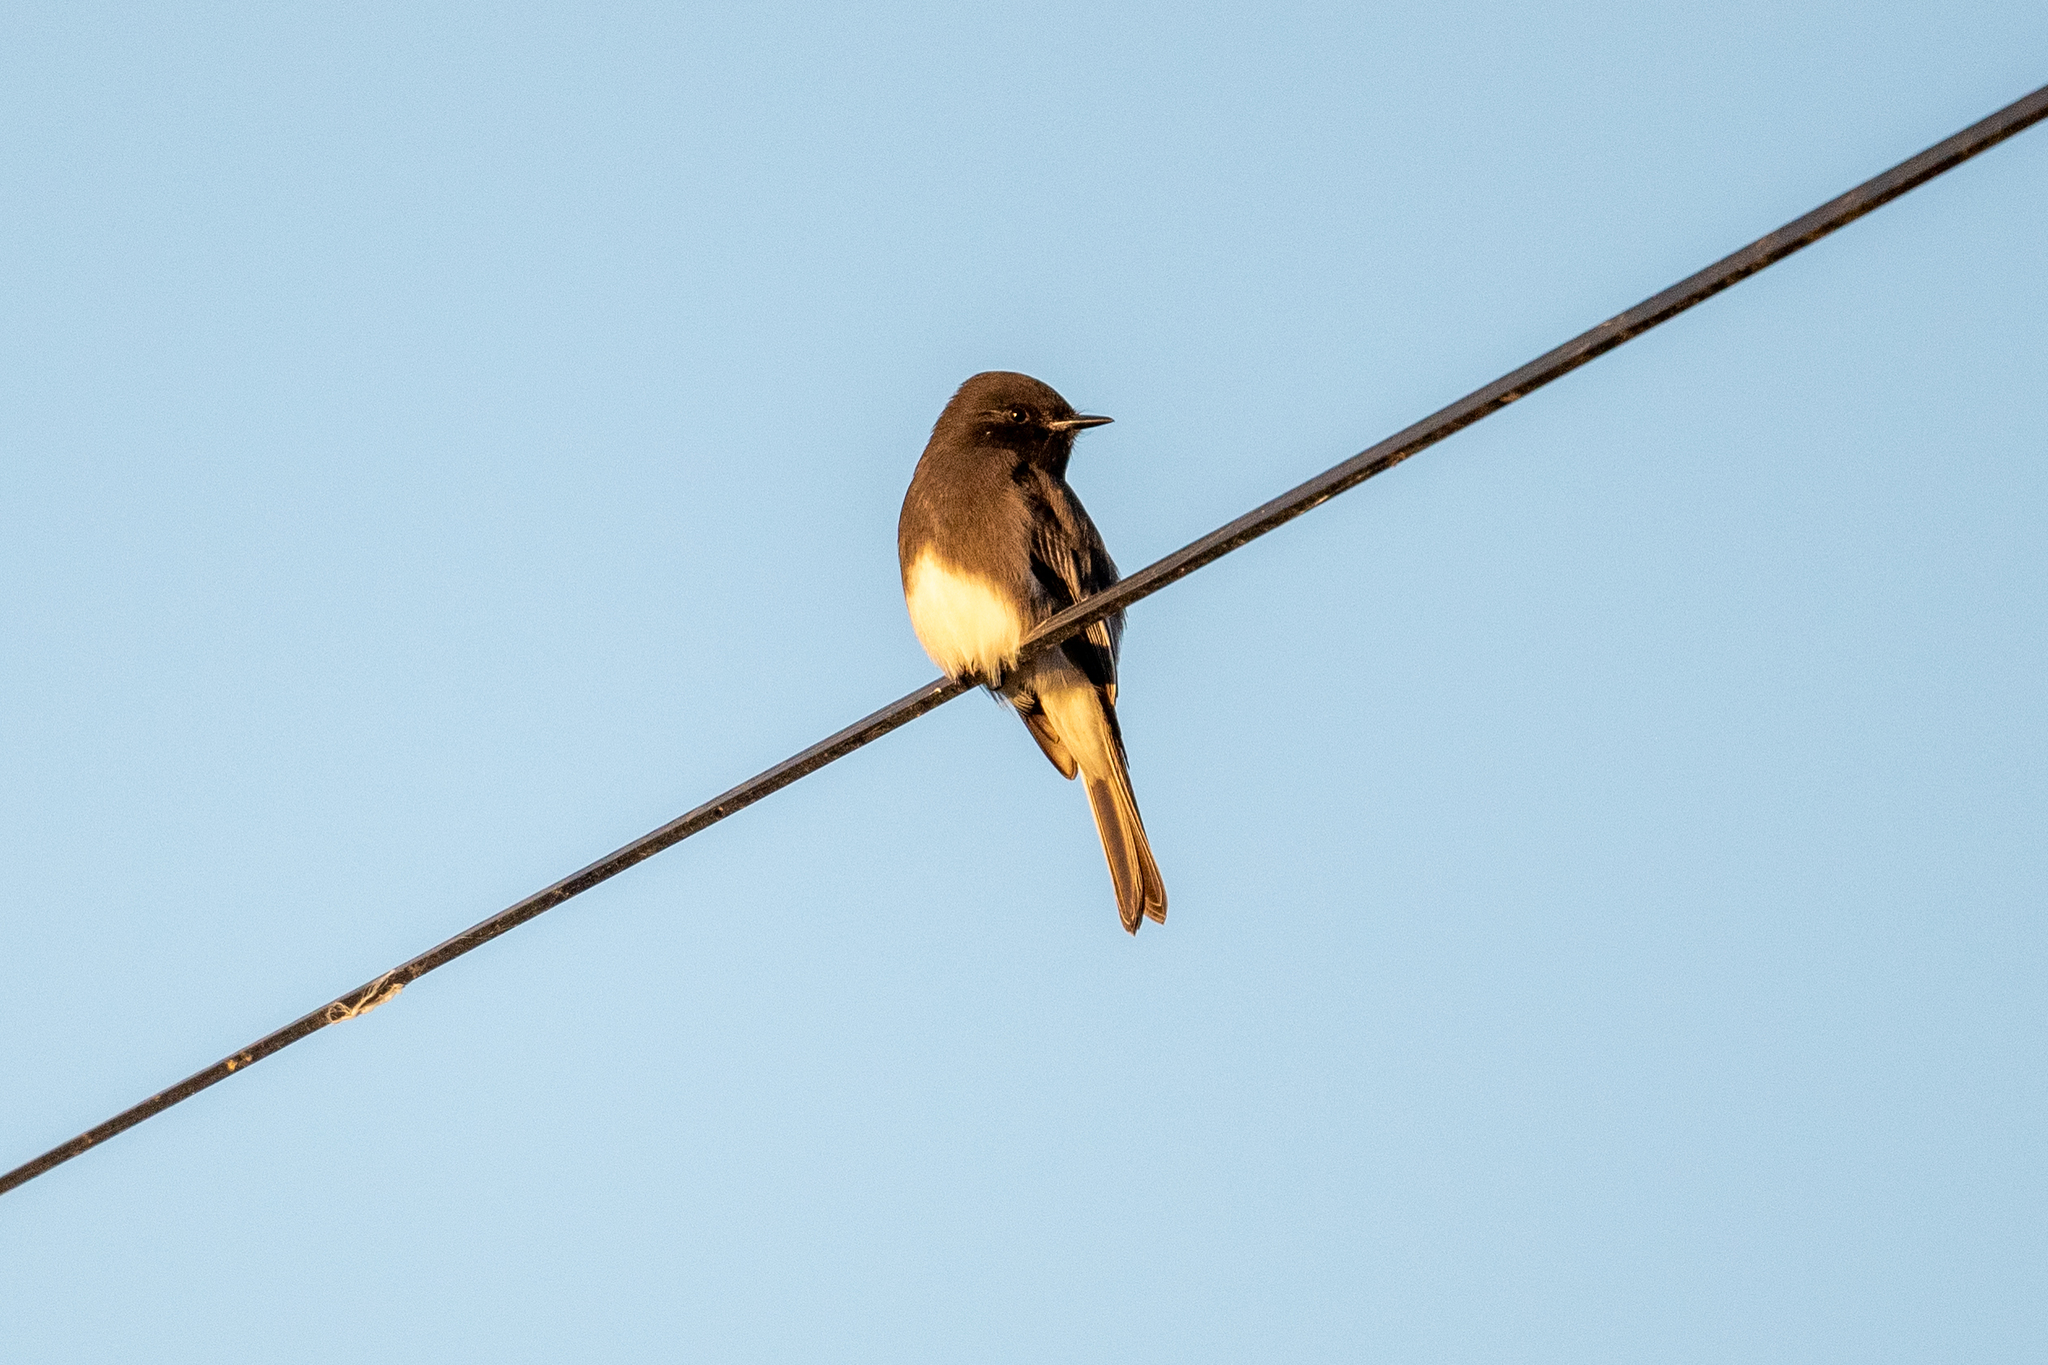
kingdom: Animalia
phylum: Chordata
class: Aves
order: Passeriformes
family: Tyrannidae
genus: Sayornis
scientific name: Sayornis nigricans
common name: Black phoebe
